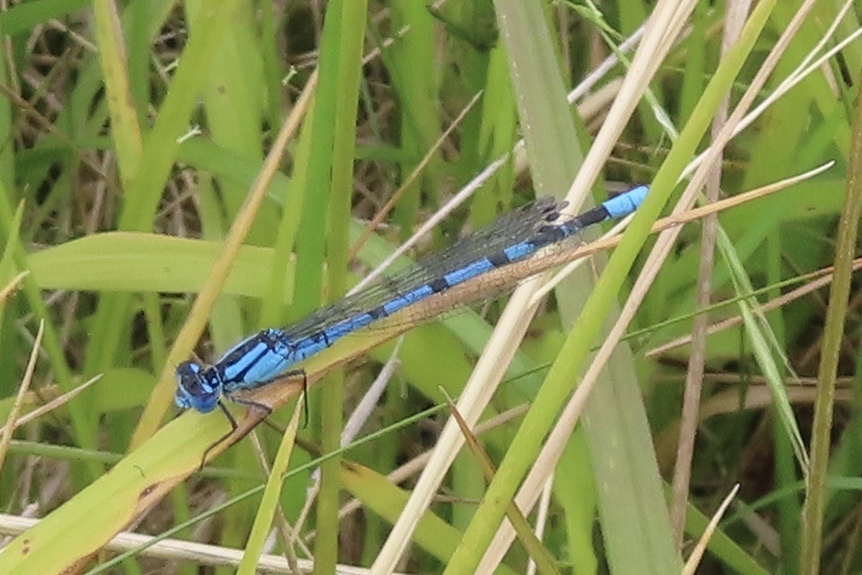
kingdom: Animalia
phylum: Arthropoda
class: Insecta
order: Odonata
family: Coenagrionidae
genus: Enallagma
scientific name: Enallagma cyathigerum
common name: Common blue damselfly
